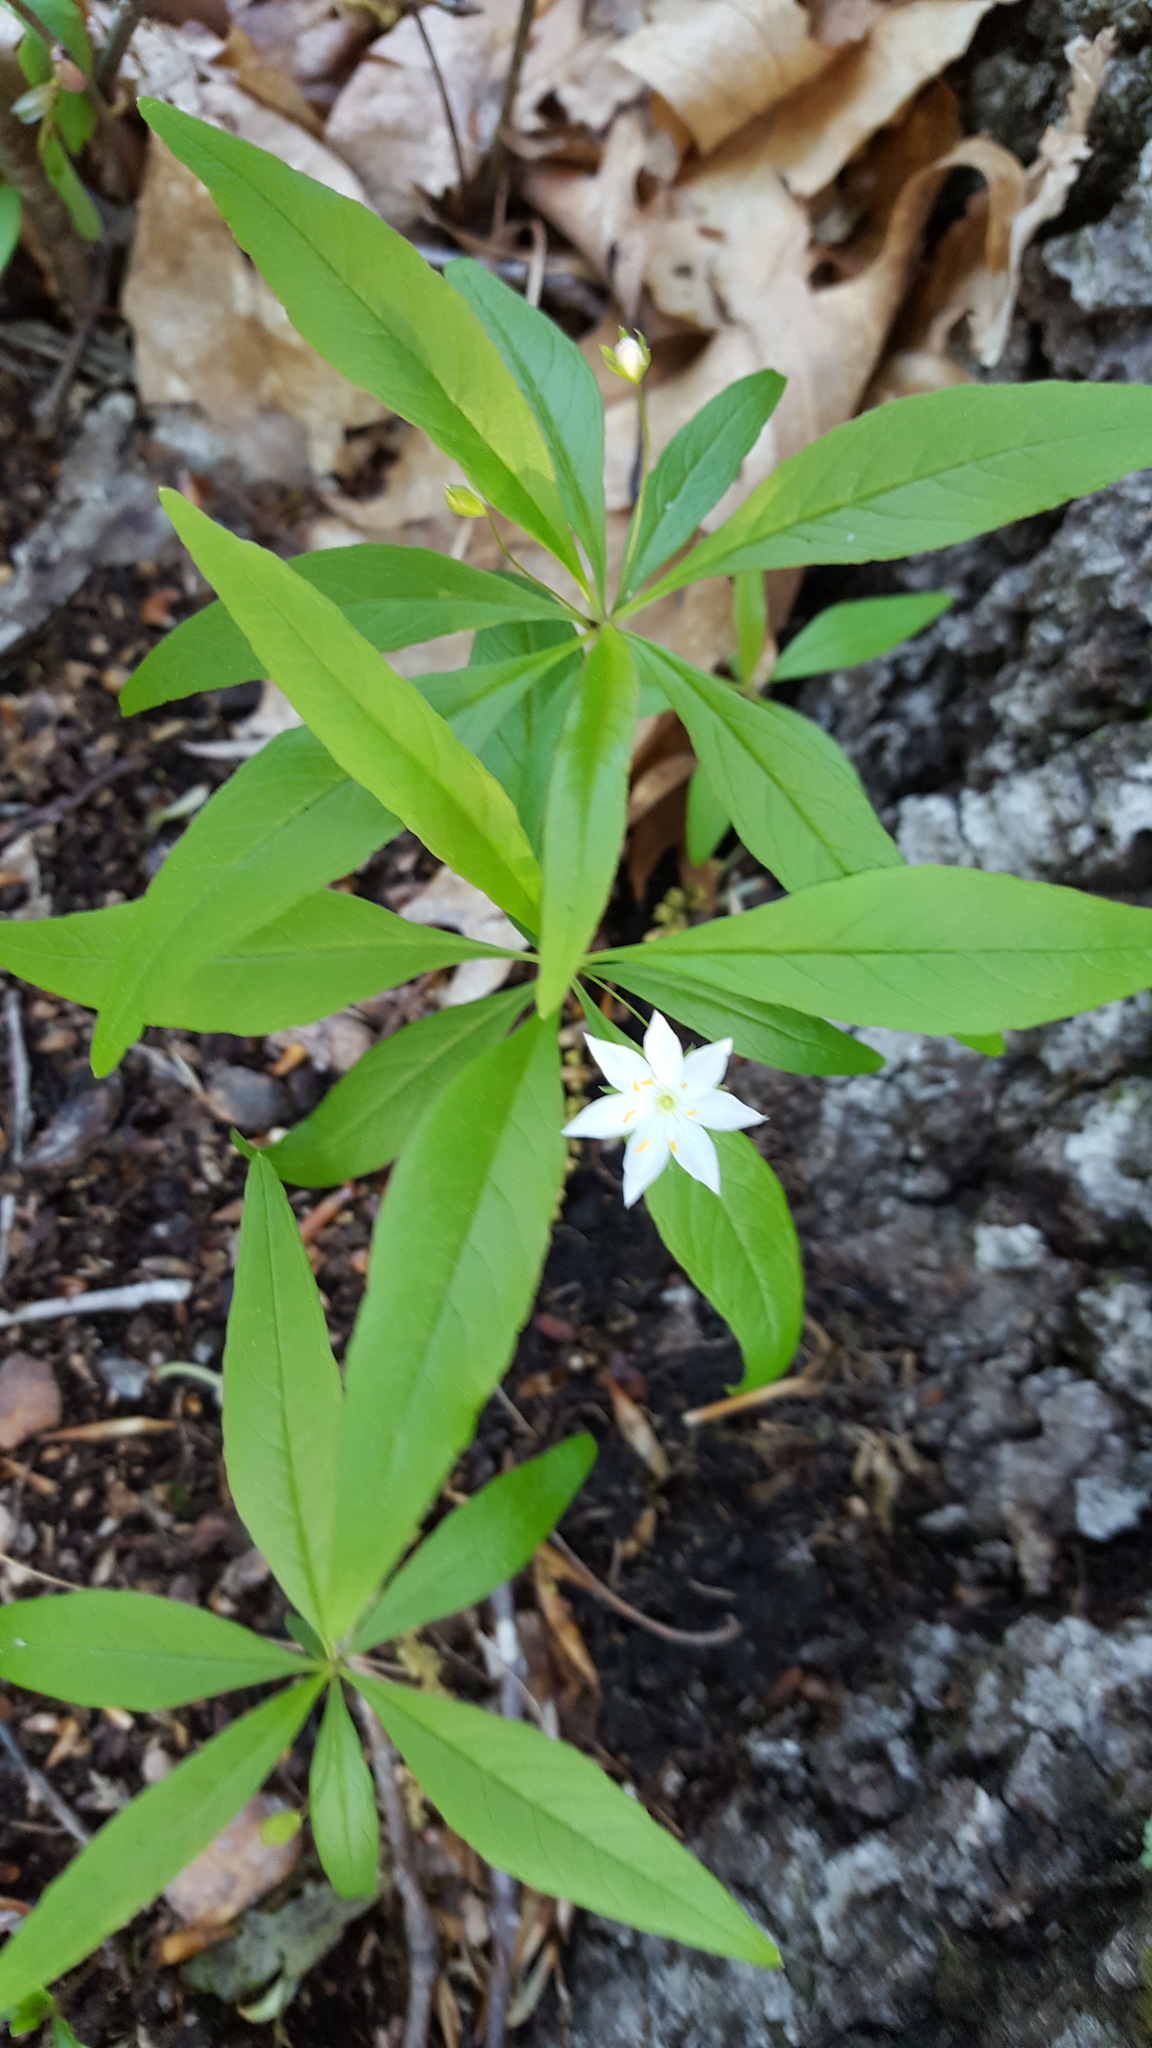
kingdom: Plantae
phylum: Tracheophyta
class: Magnoliopsida
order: Ericales
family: Primulaceae
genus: Lysimachia
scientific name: Lysimachia borealis
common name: American starflower
